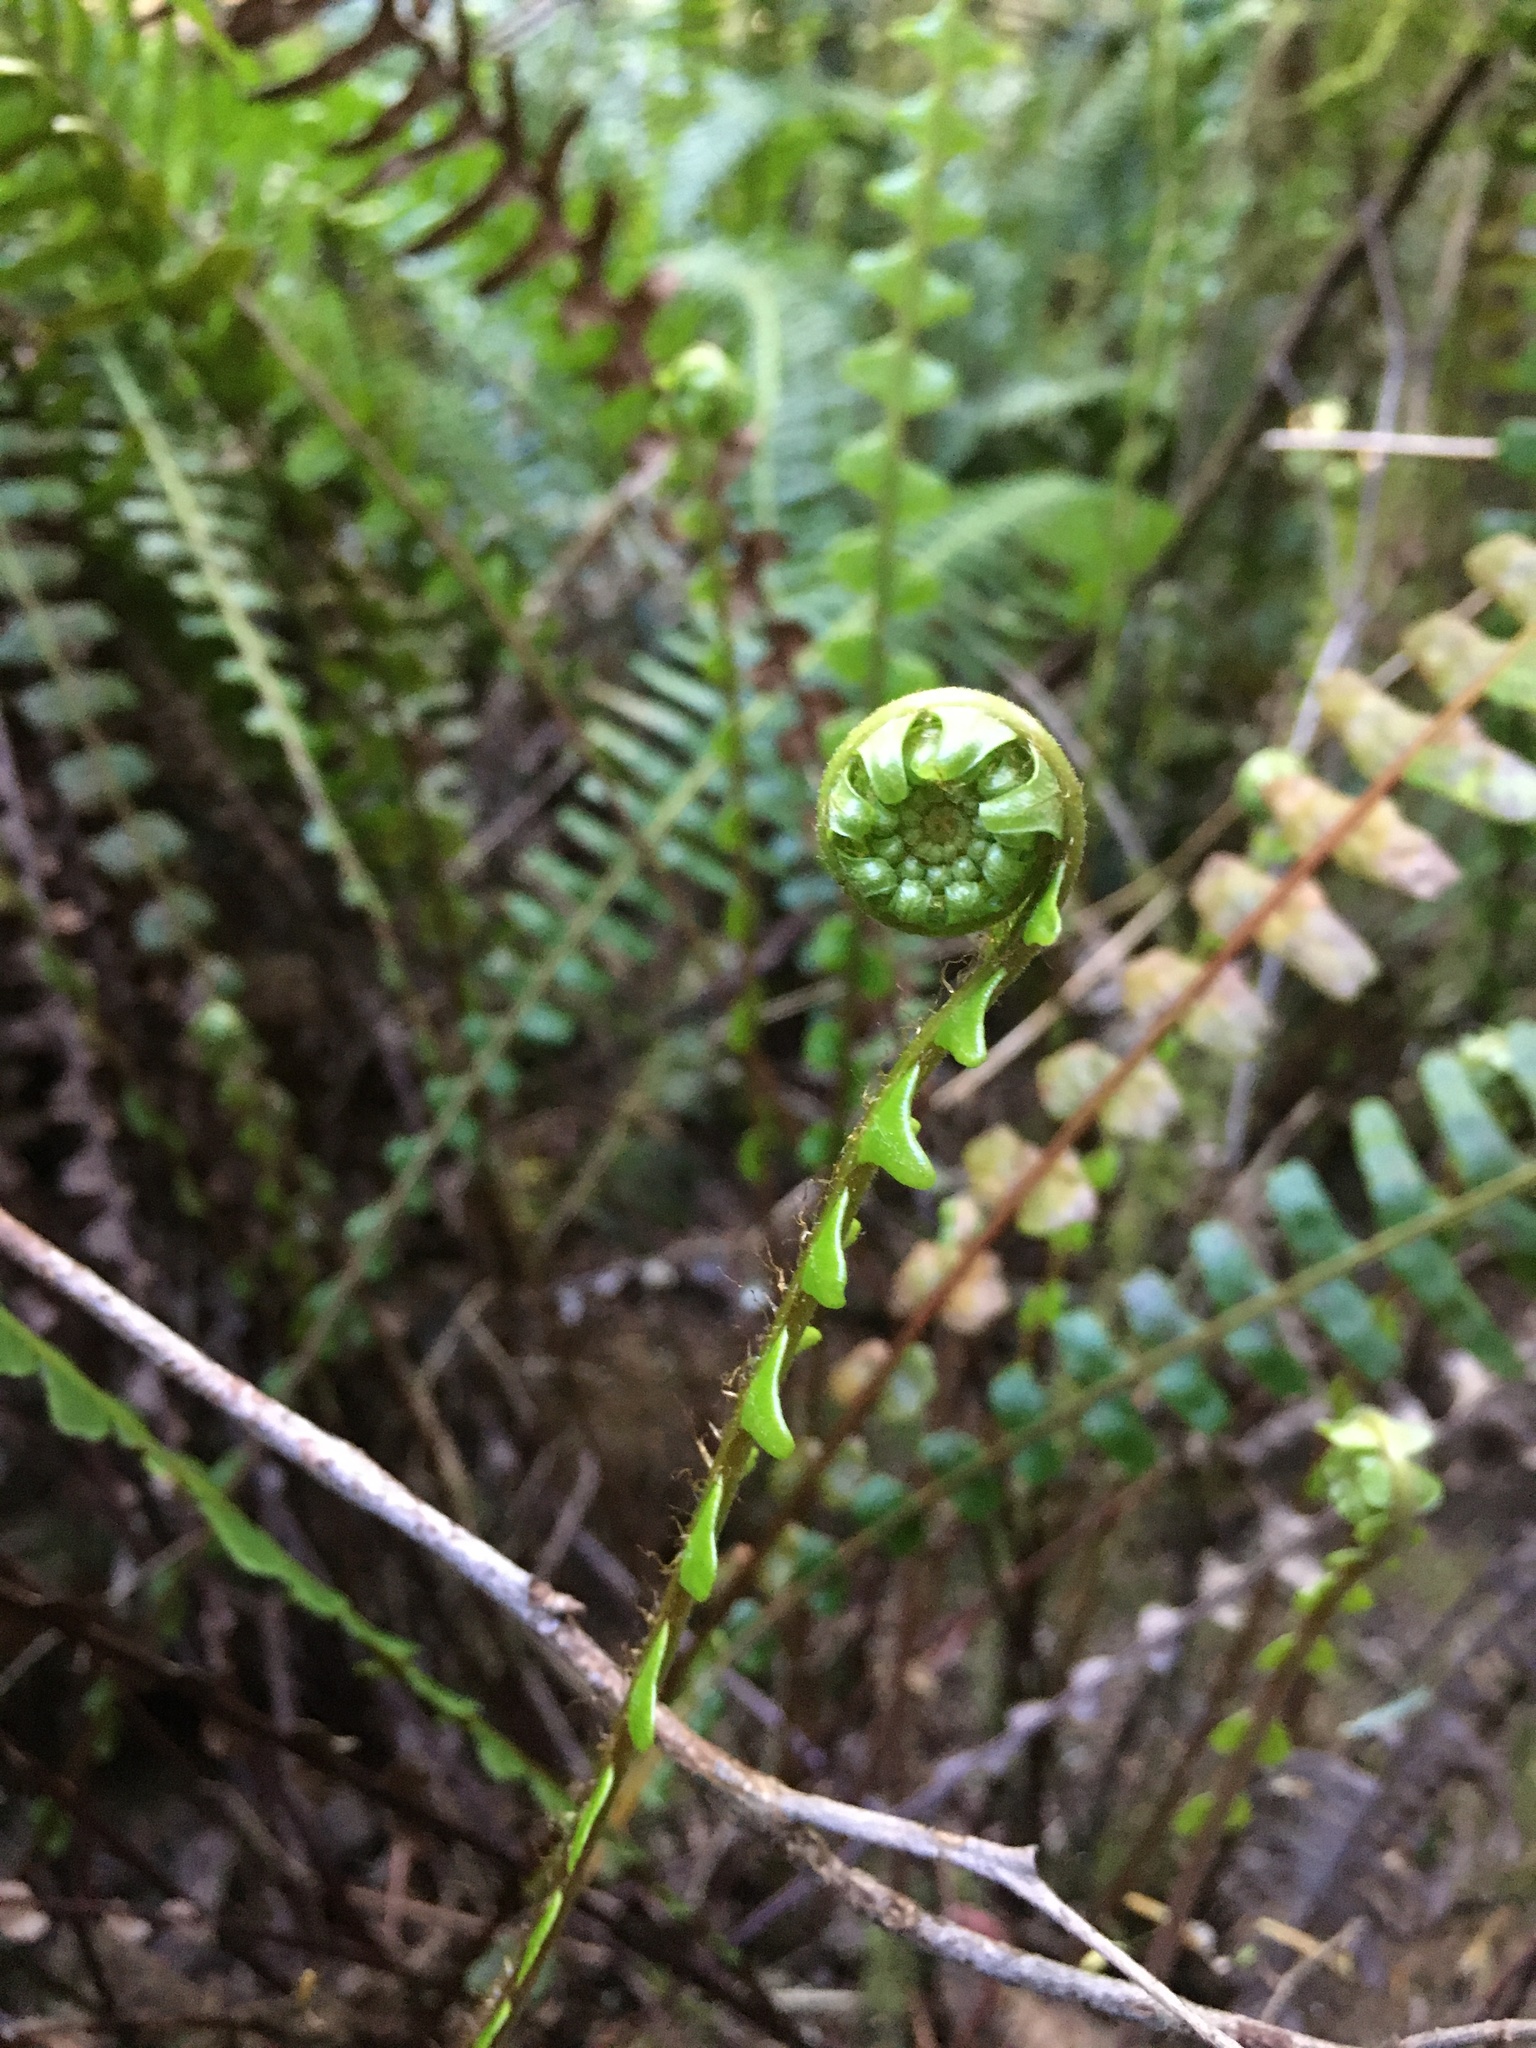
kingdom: Plantae
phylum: Tracheophyta
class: Polypodiopsida
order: Polypodiales
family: Blechnaceae
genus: Struthiopteris
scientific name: Struthiopteris spicant
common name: Deer fern
